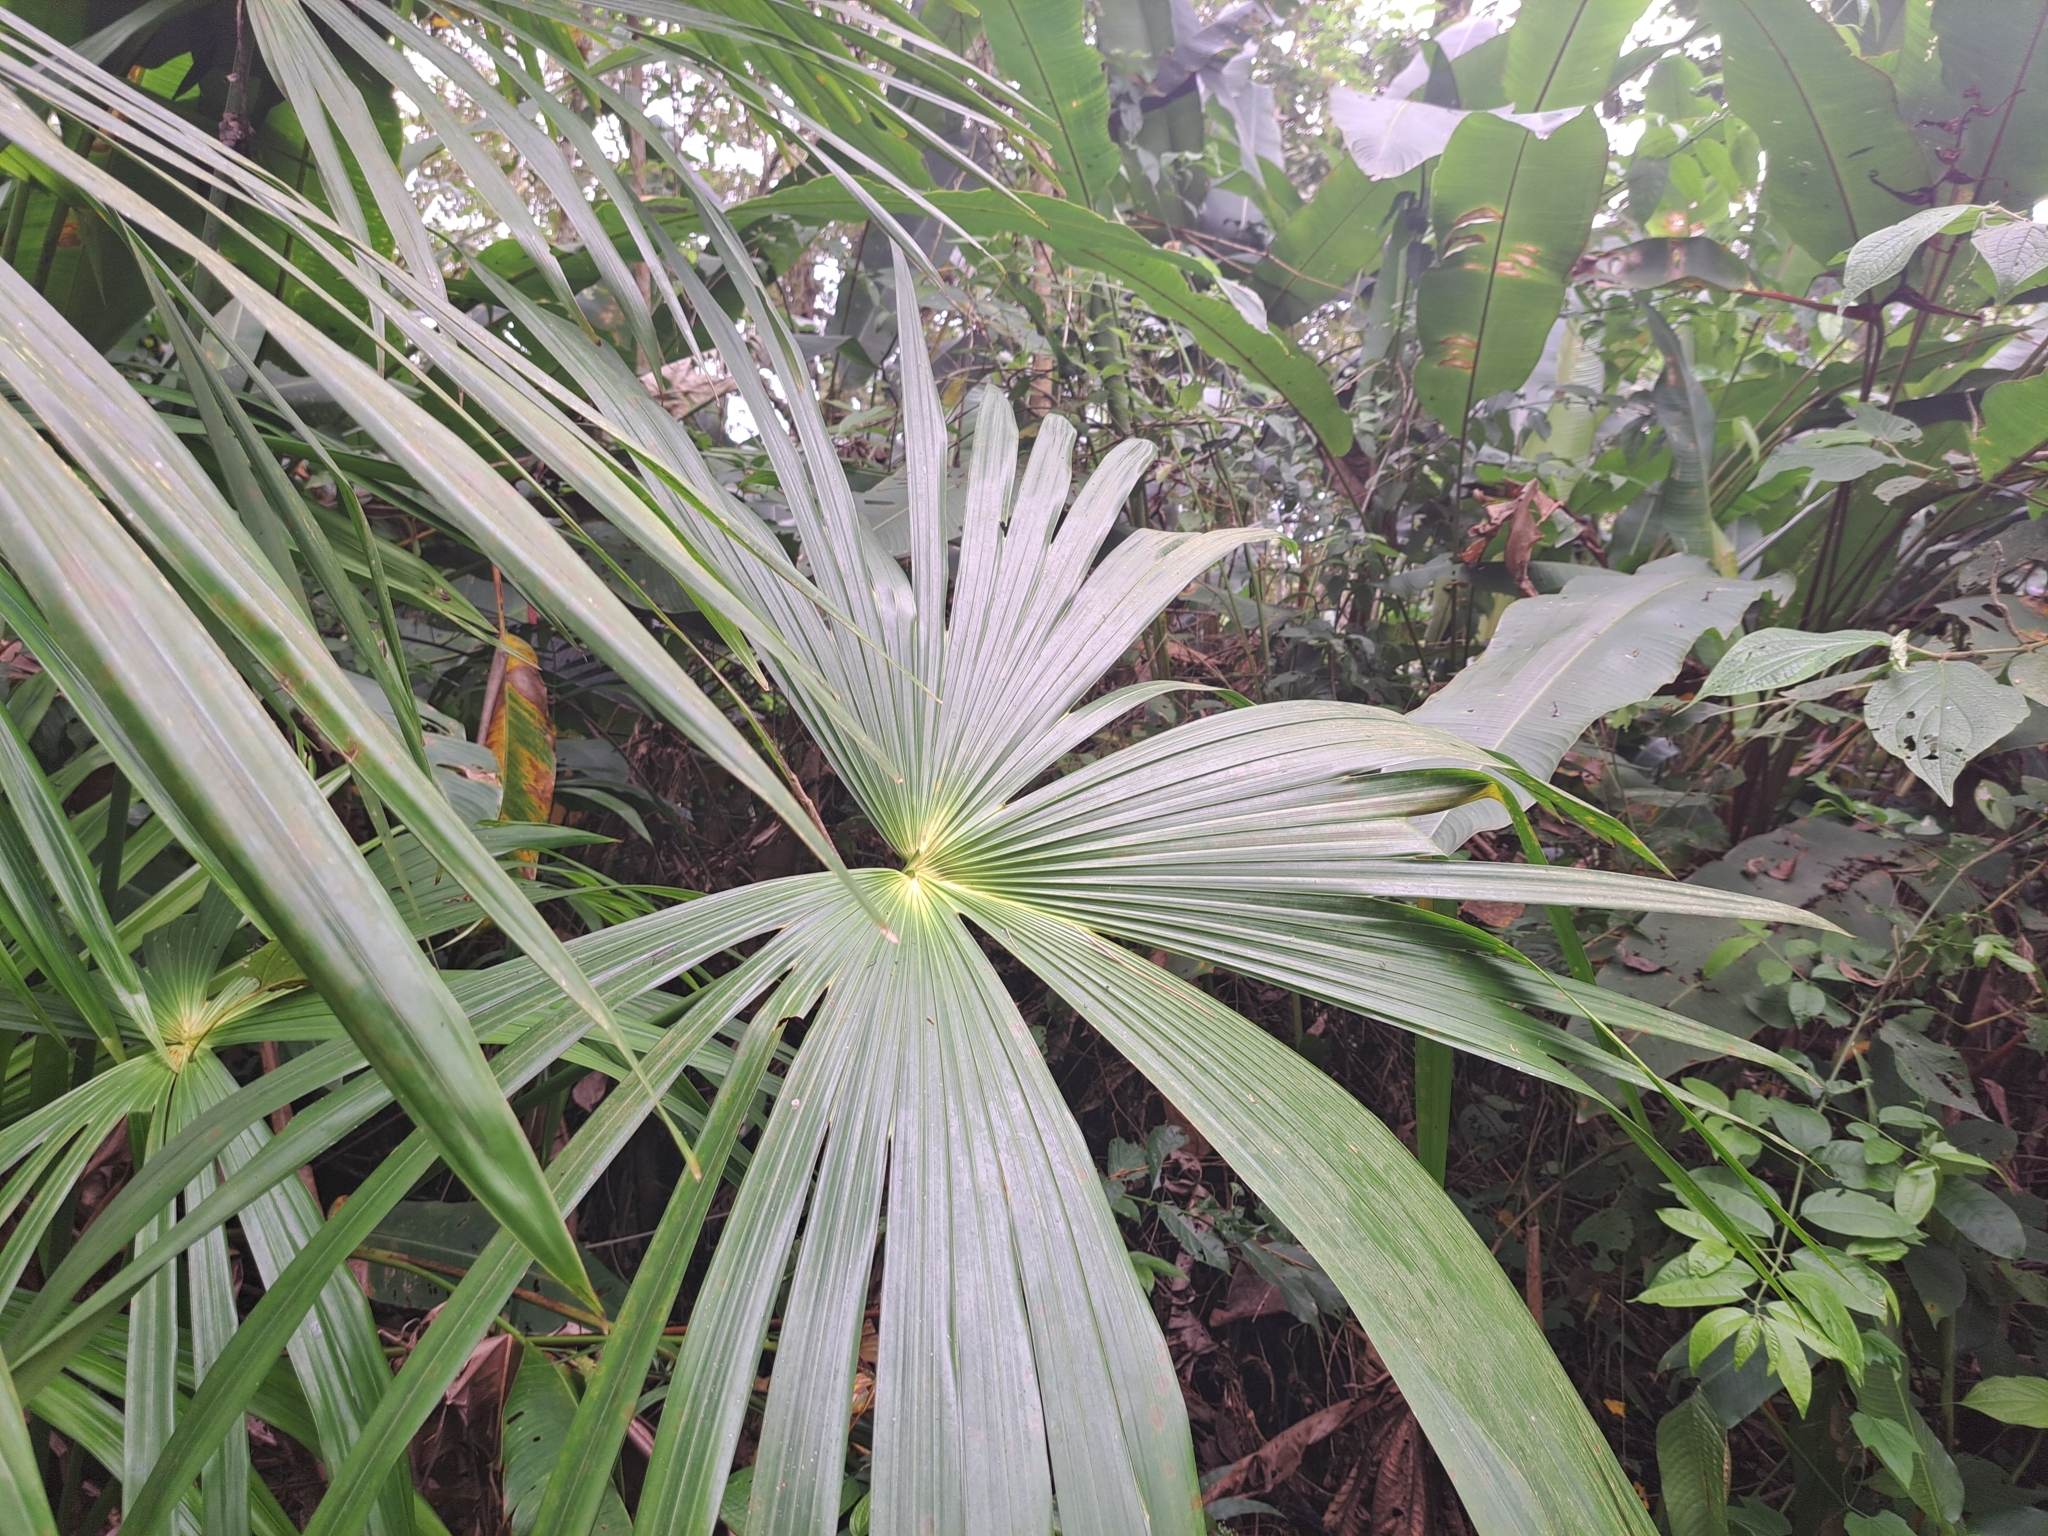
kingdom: Plantae
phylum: Tracheophyta
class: Liliopsida
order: Pandanales
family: Cyclanthaceae
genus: Carludovica
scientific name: Carludovica palmata
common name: Panama hat plant
